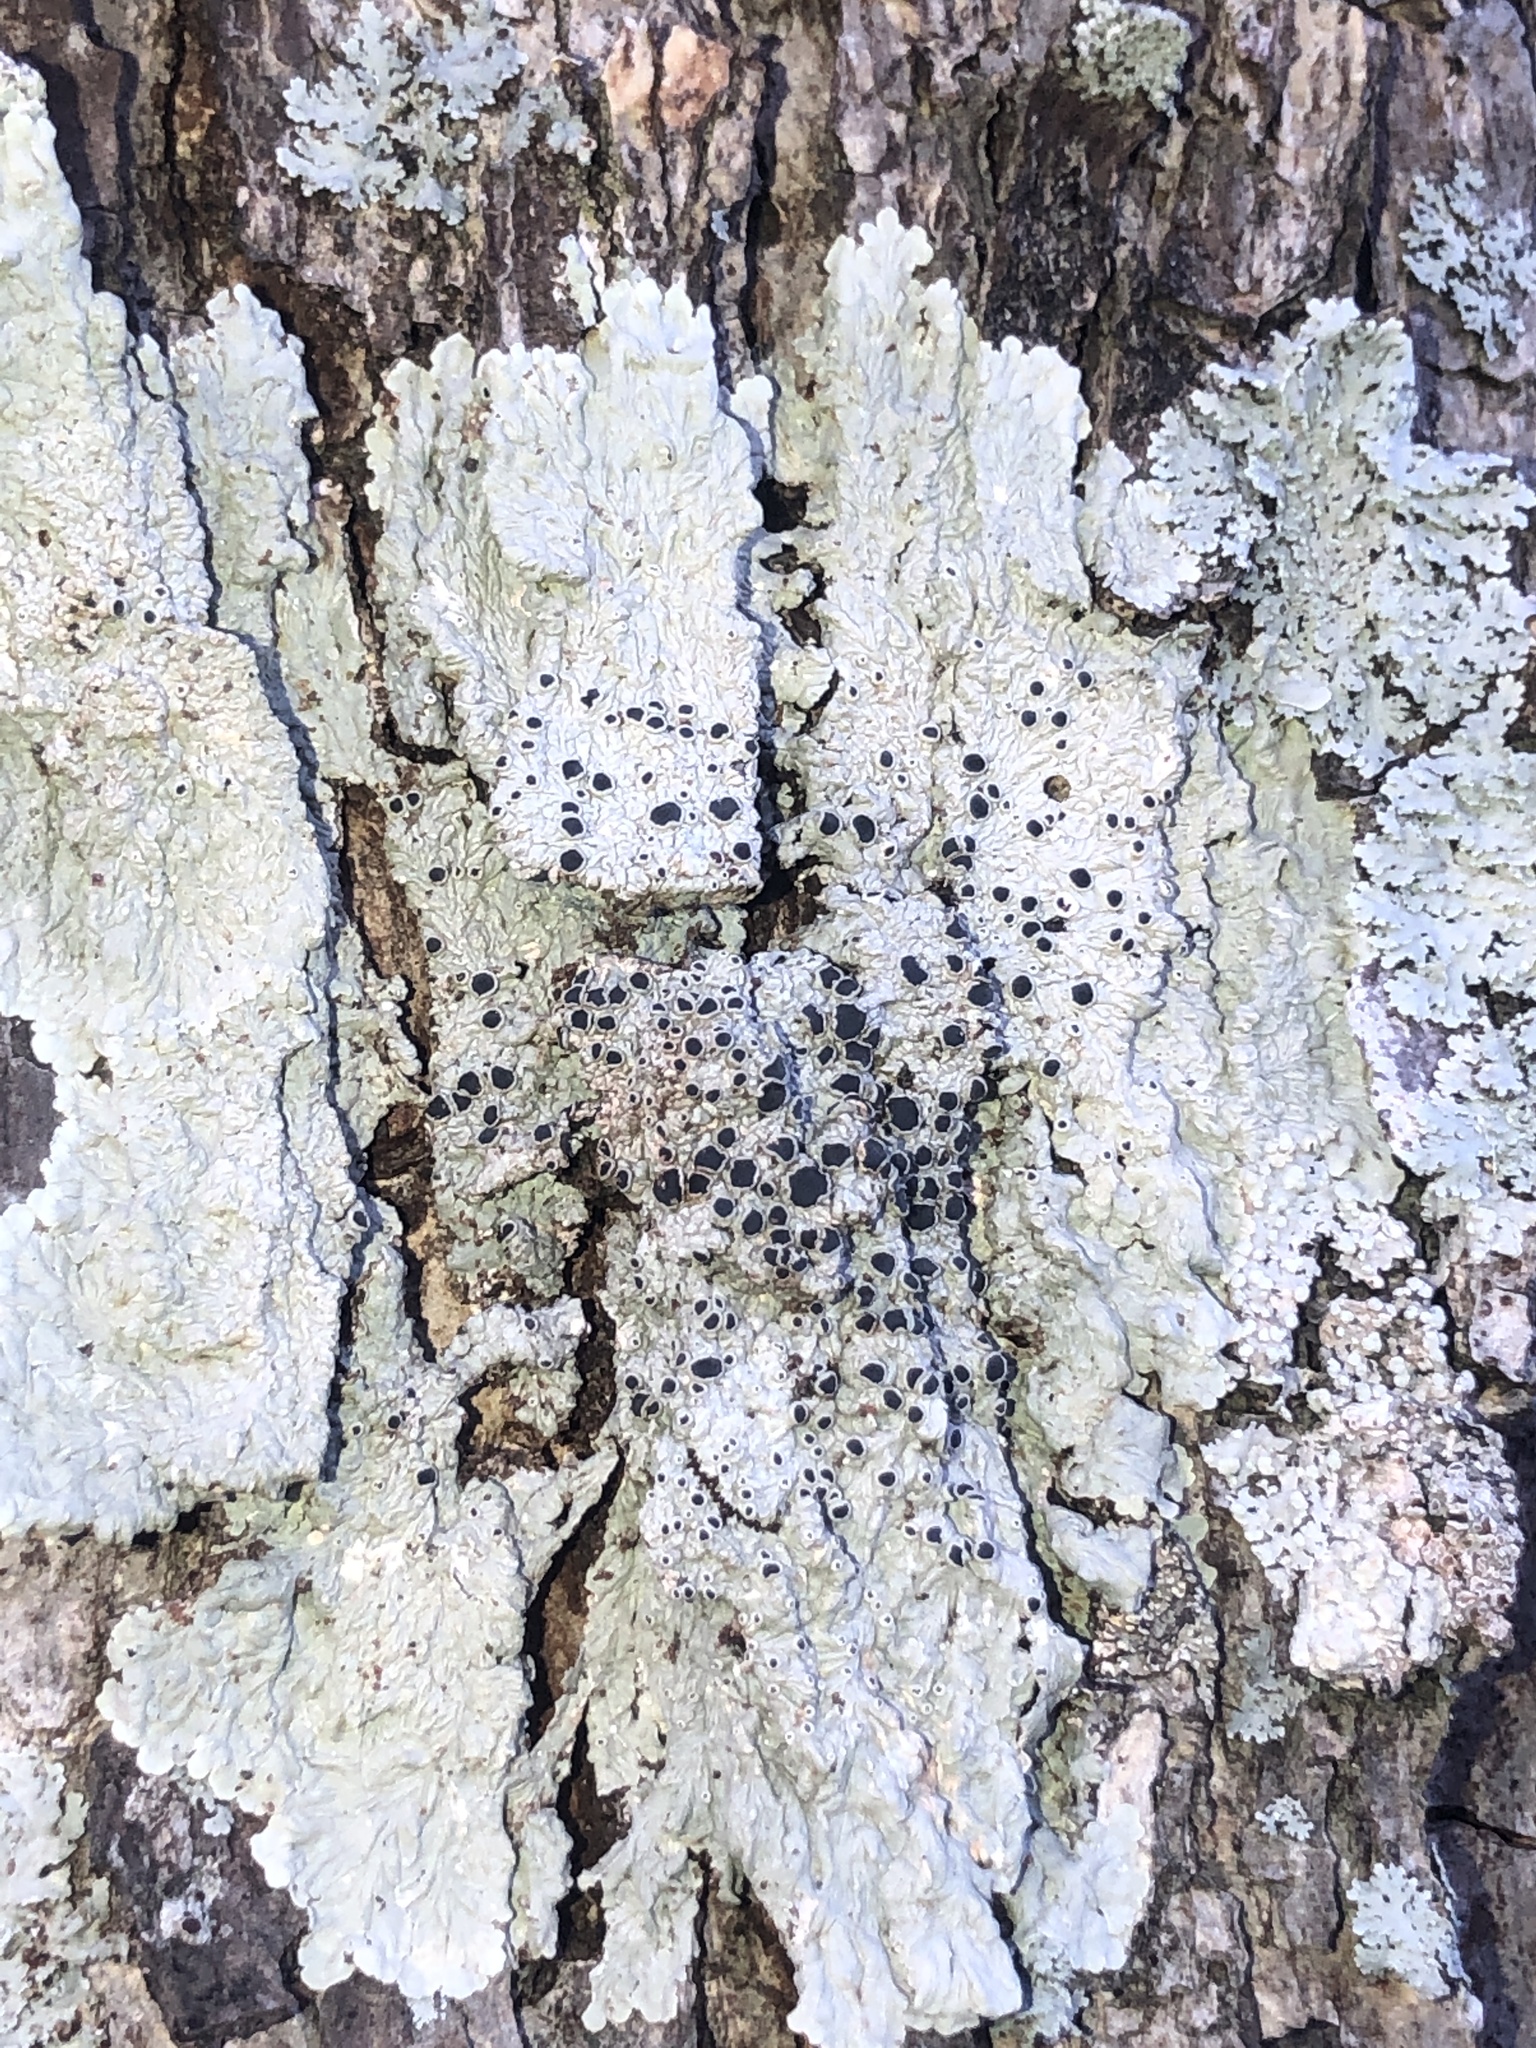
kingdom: Fungi
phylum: Ascomycota
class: Lecanoromycetes
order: Teloschistales
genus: Dirinaria
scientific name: Dirinaria confusa
